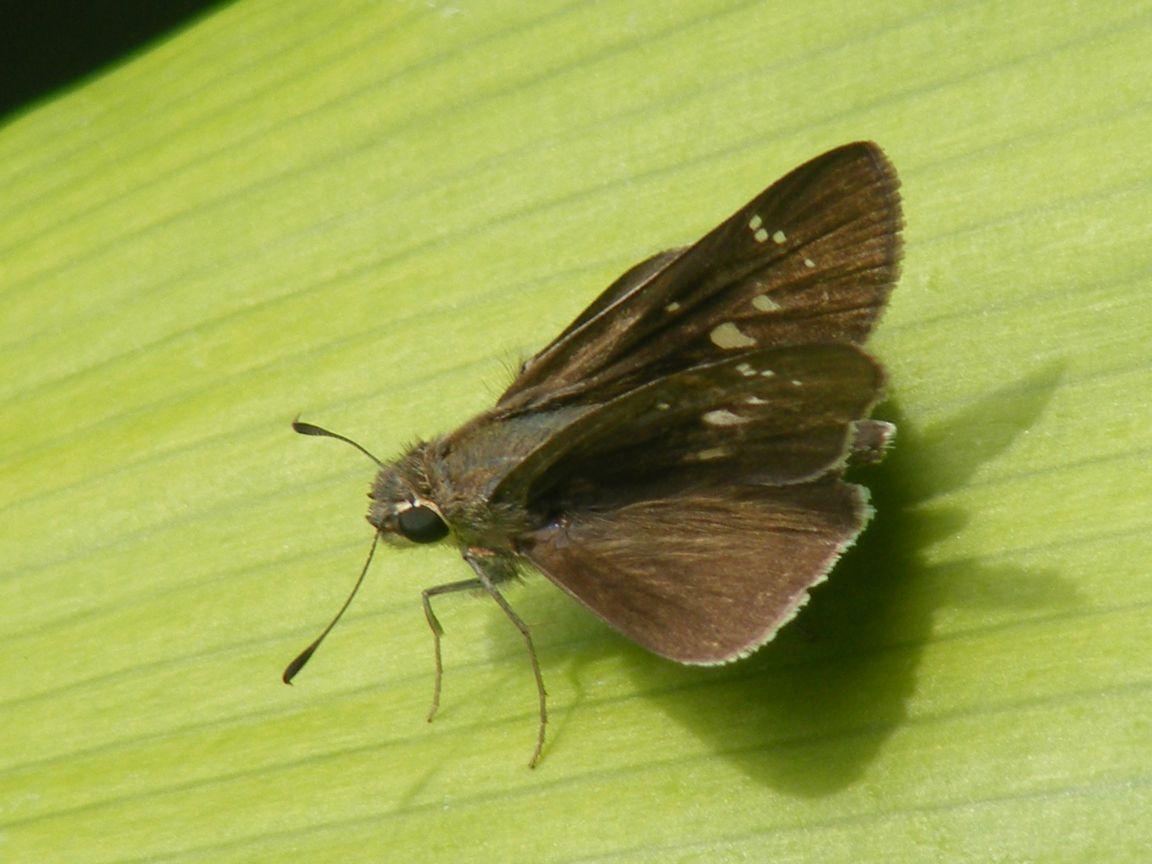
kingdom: Animalia
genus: Torbenlarsenia
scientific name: Torbenlarsenia
